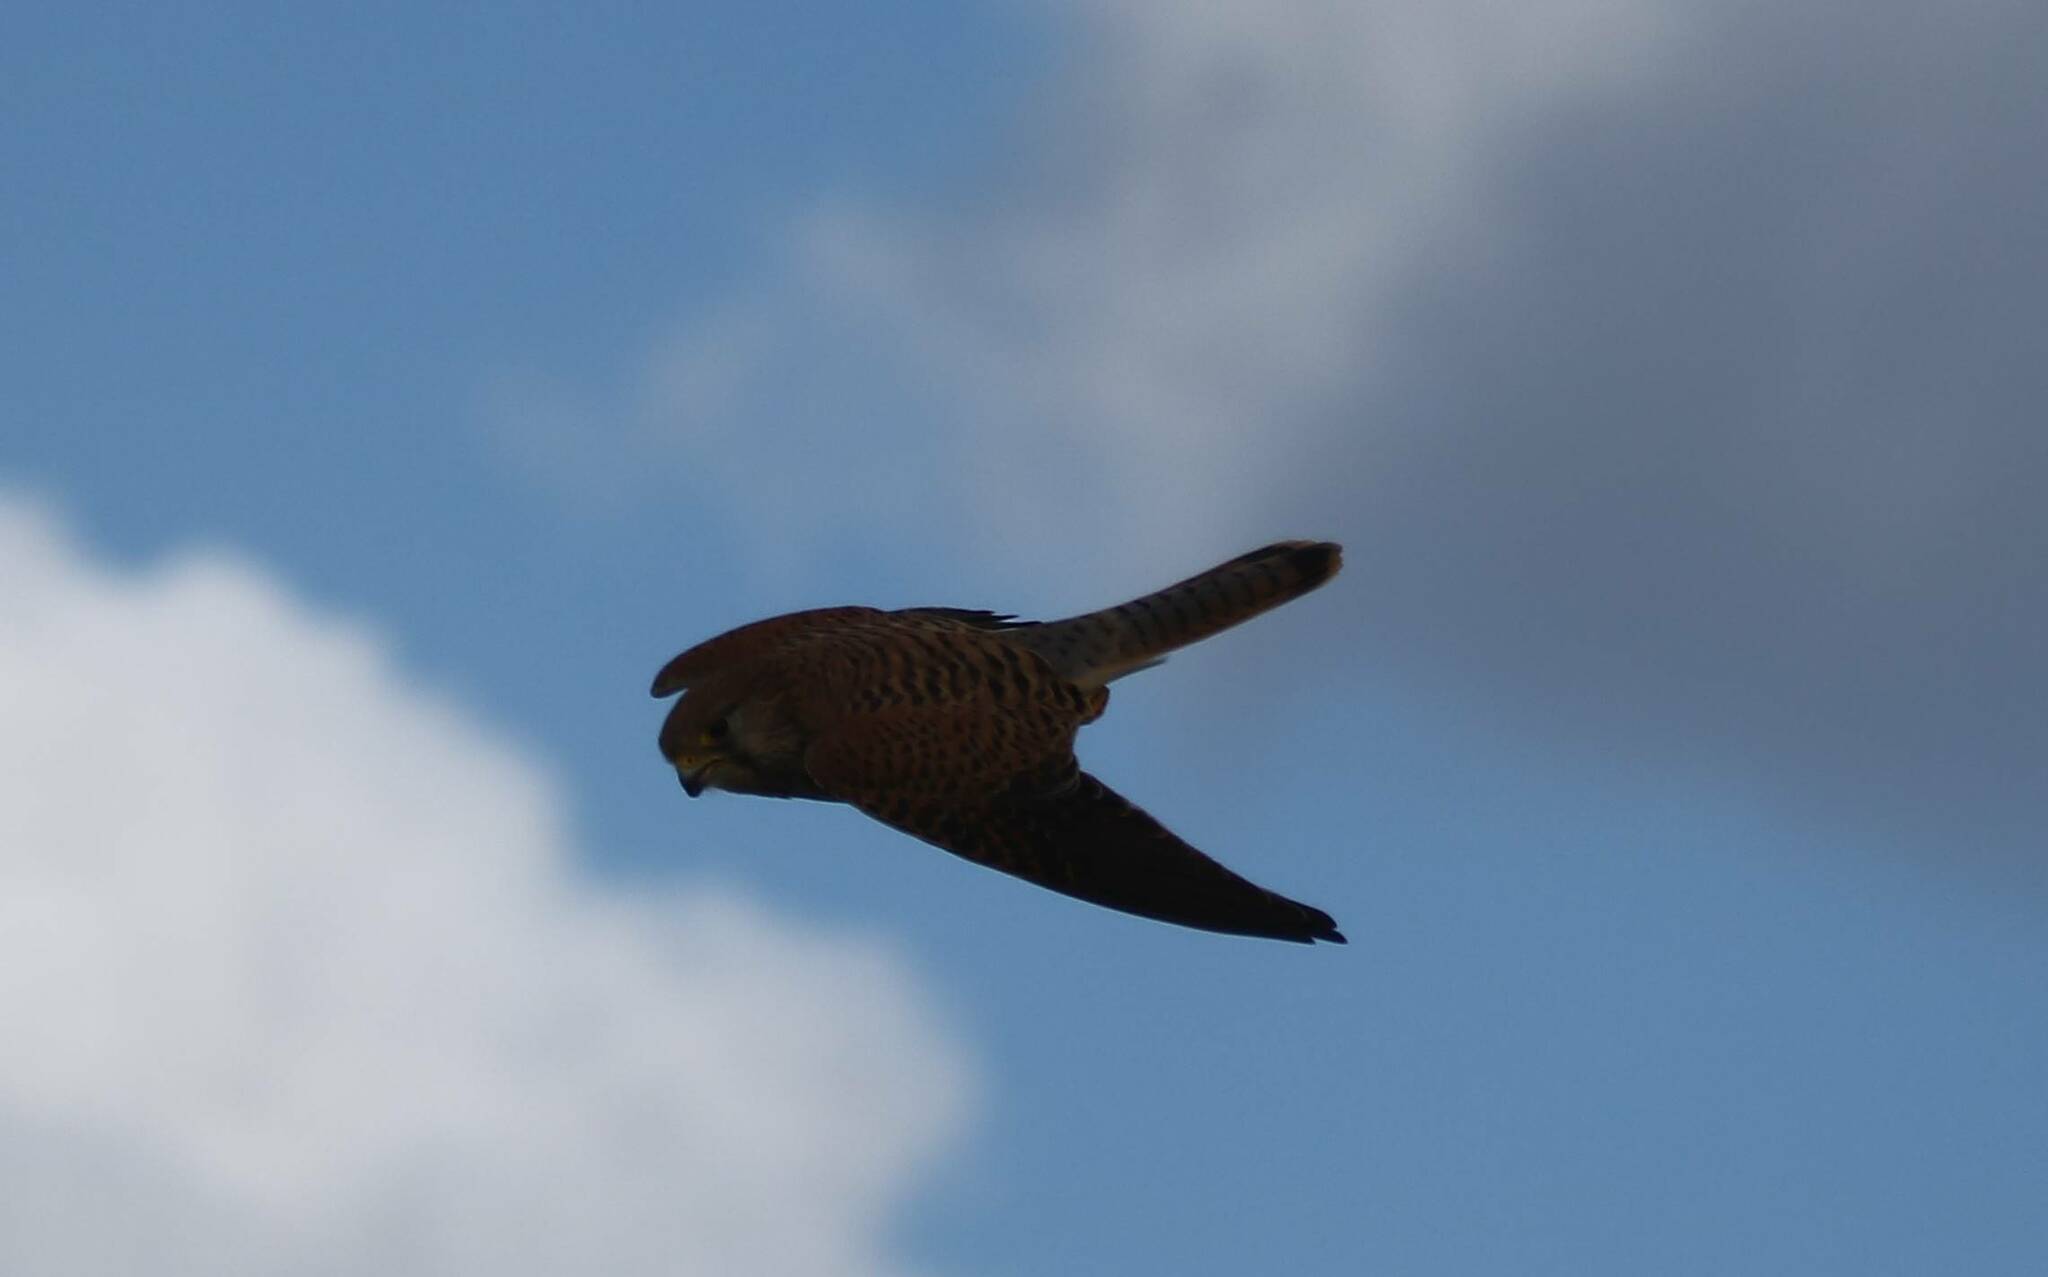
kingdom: Animalia
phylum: Chordata
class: Aves
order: Falconiformes
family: Falconidae
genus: Falco
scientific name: Falco tinnunculus
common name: Common kestrel
